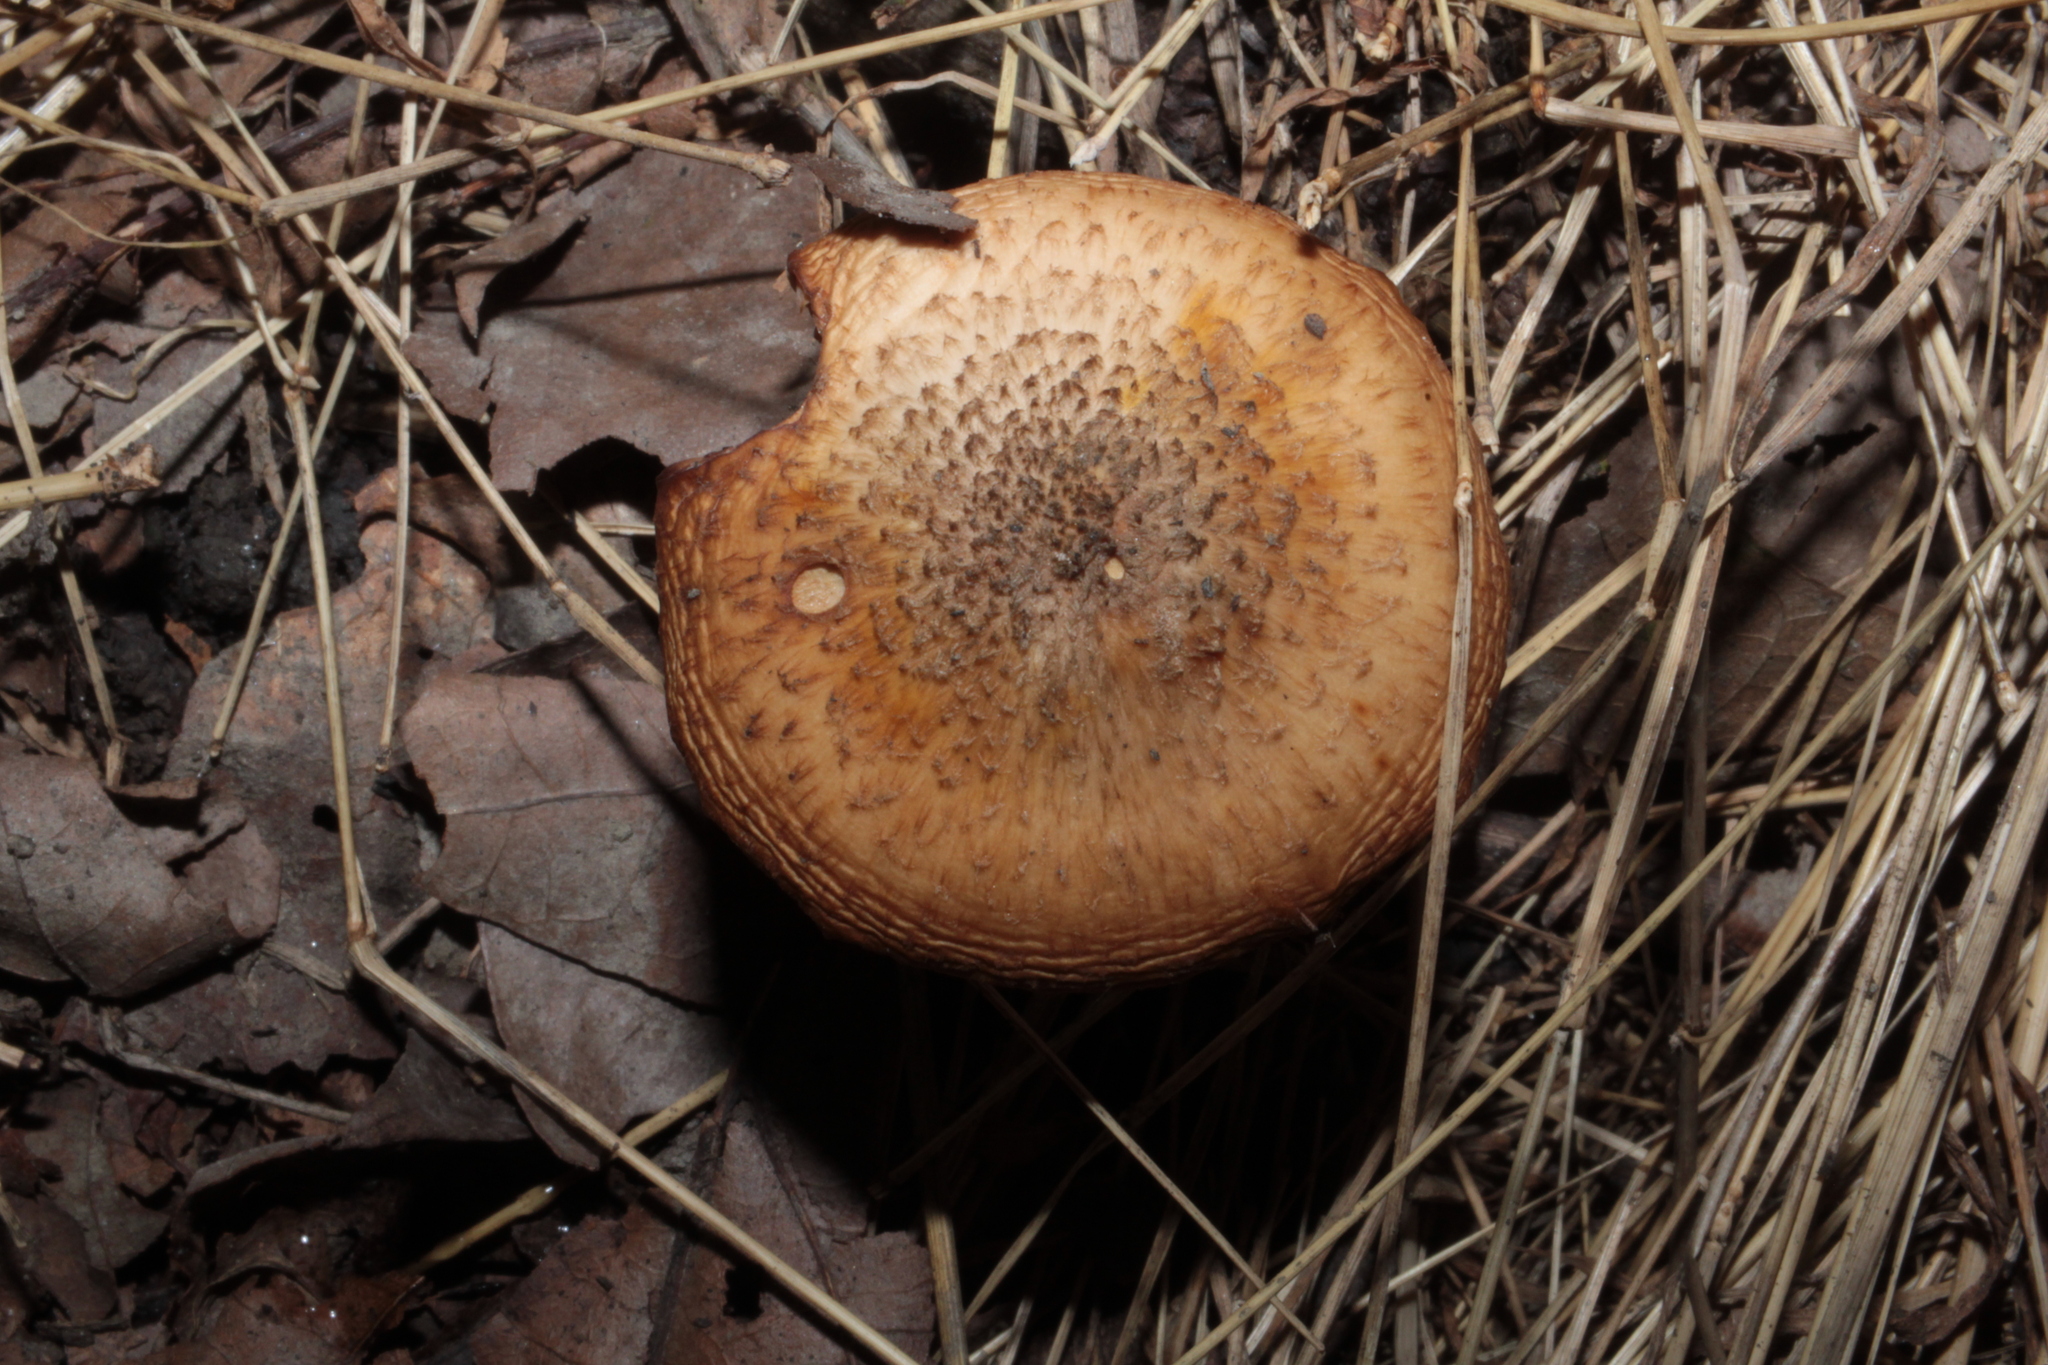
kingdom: Fungi
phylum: Basidiomycota
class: Agaricomycetes
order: Agaricales
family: Physalacriaceae
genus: Armillaria
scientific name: Armillaria gallica
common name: Bulbous honey fungus
